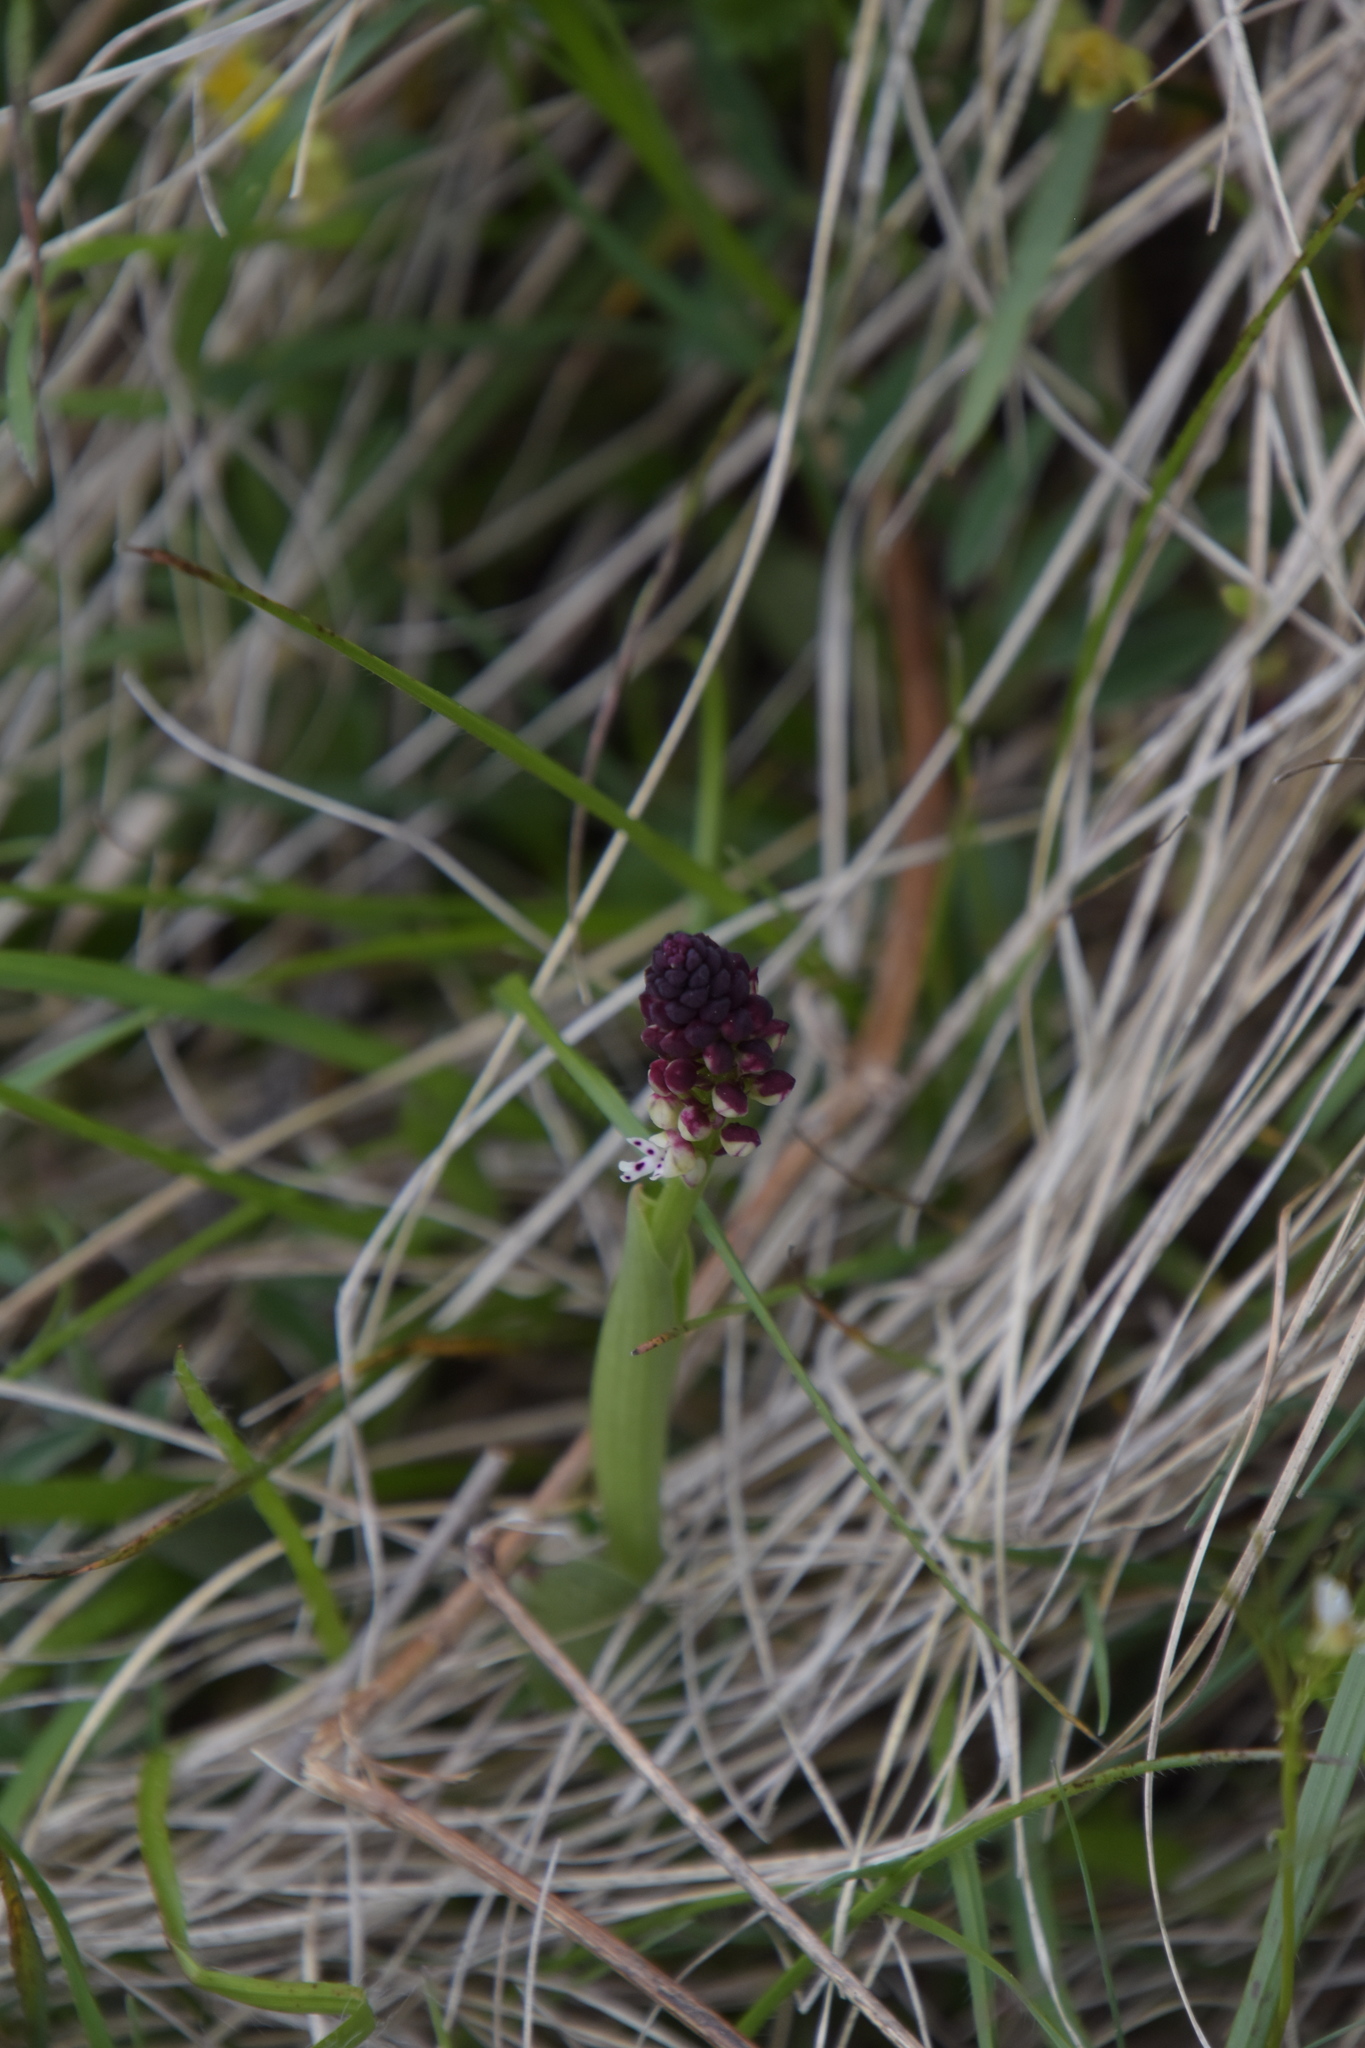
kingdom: Plantae
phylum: Tracheophyta
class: Liliopsida
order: Asparagales
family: Orchidaceae
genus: Neotinea
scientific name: Neotinea ustulata
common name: Burnt orchid
